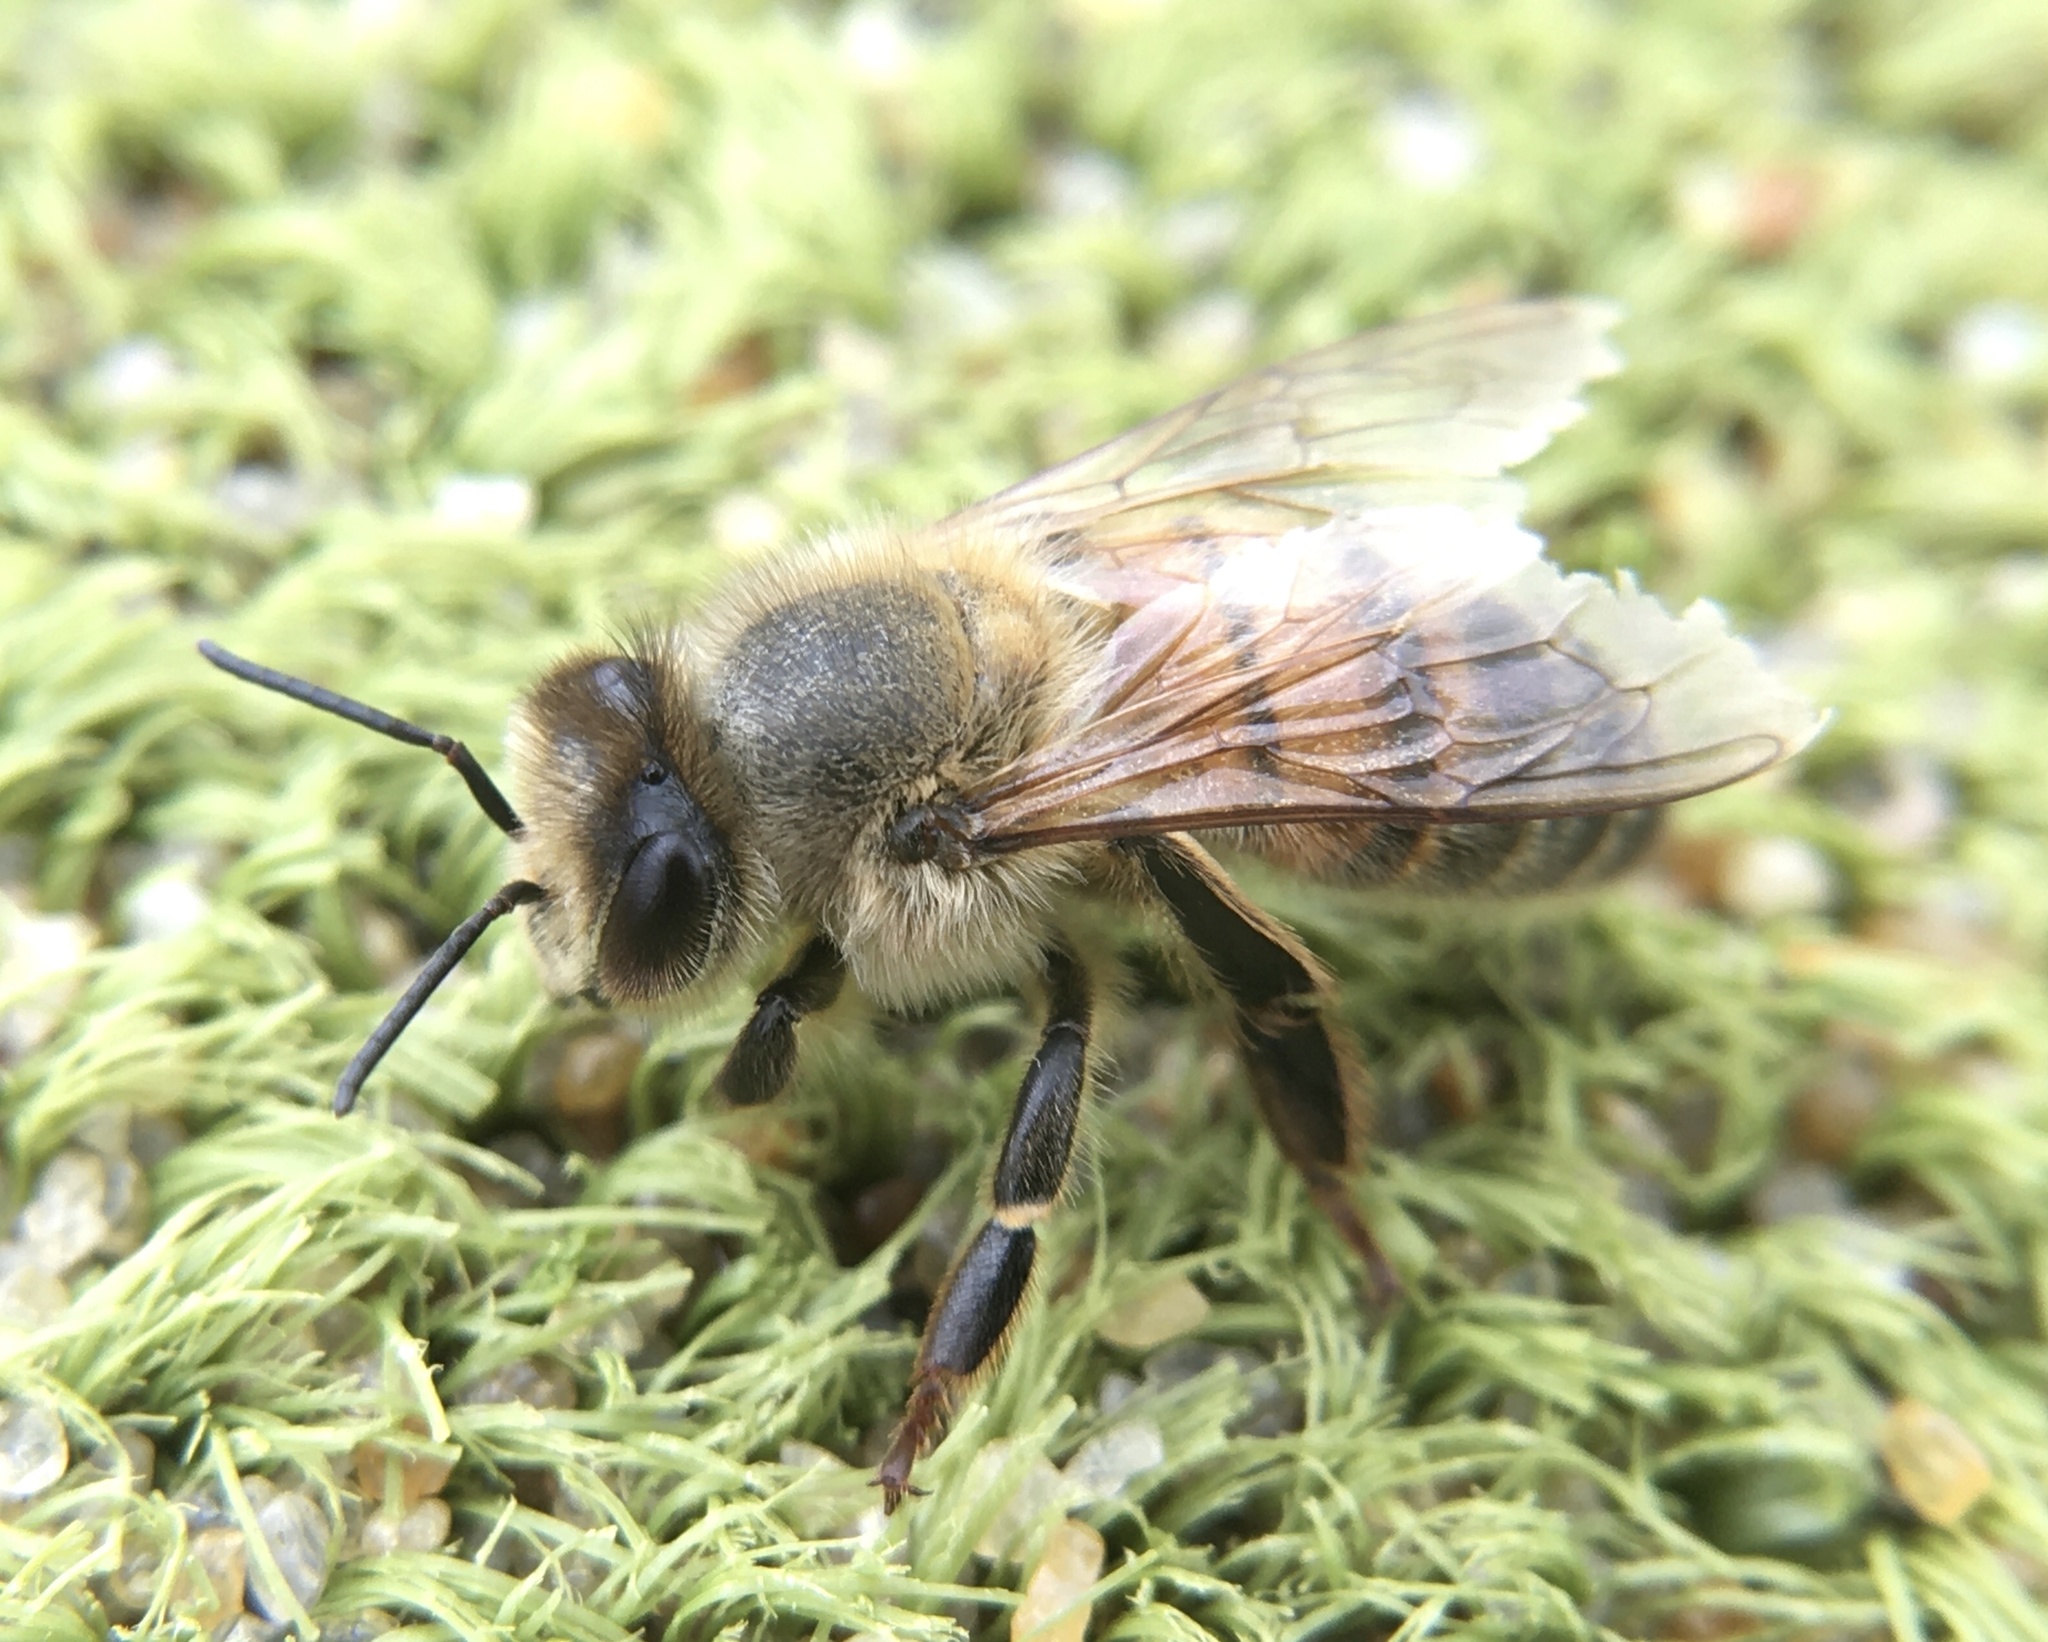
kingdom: Animalia
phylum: Arthropoda
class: Insecta
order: Hymenoptera
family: Apidae
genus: Apis
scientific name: Apis mellifera
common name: Honey bee
